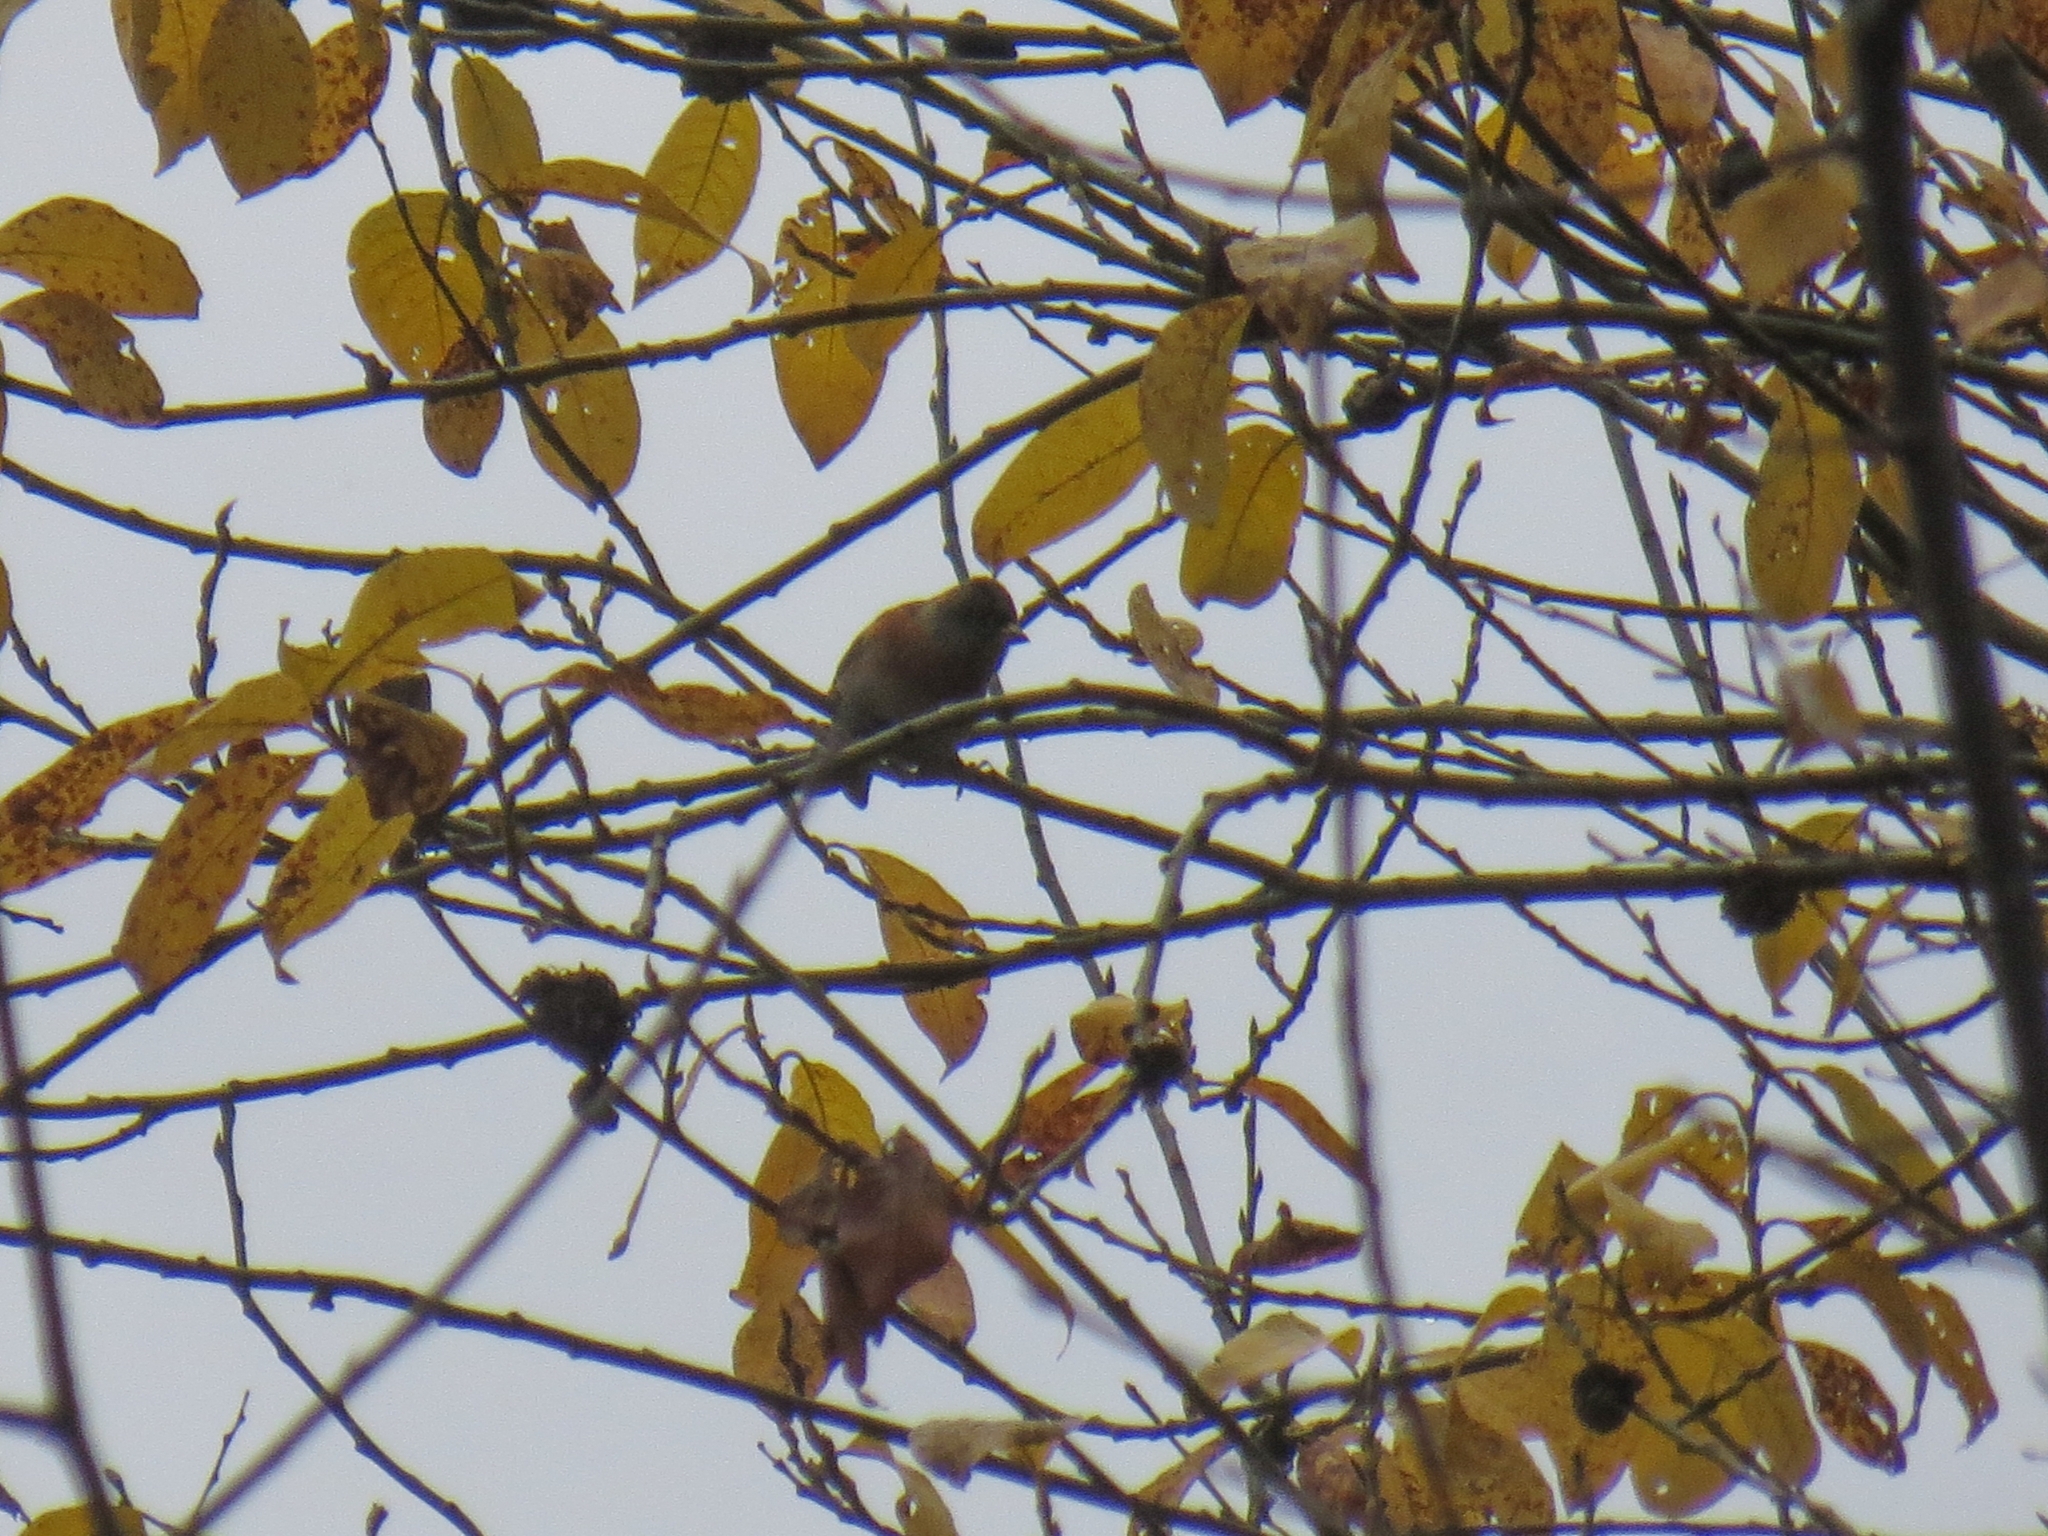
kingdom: Animalia
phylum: Chordata
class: Aves
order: Passeriformes
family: Fringillidae
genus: Fringilla
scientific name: Fringilla montifringilla
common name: Brambling
